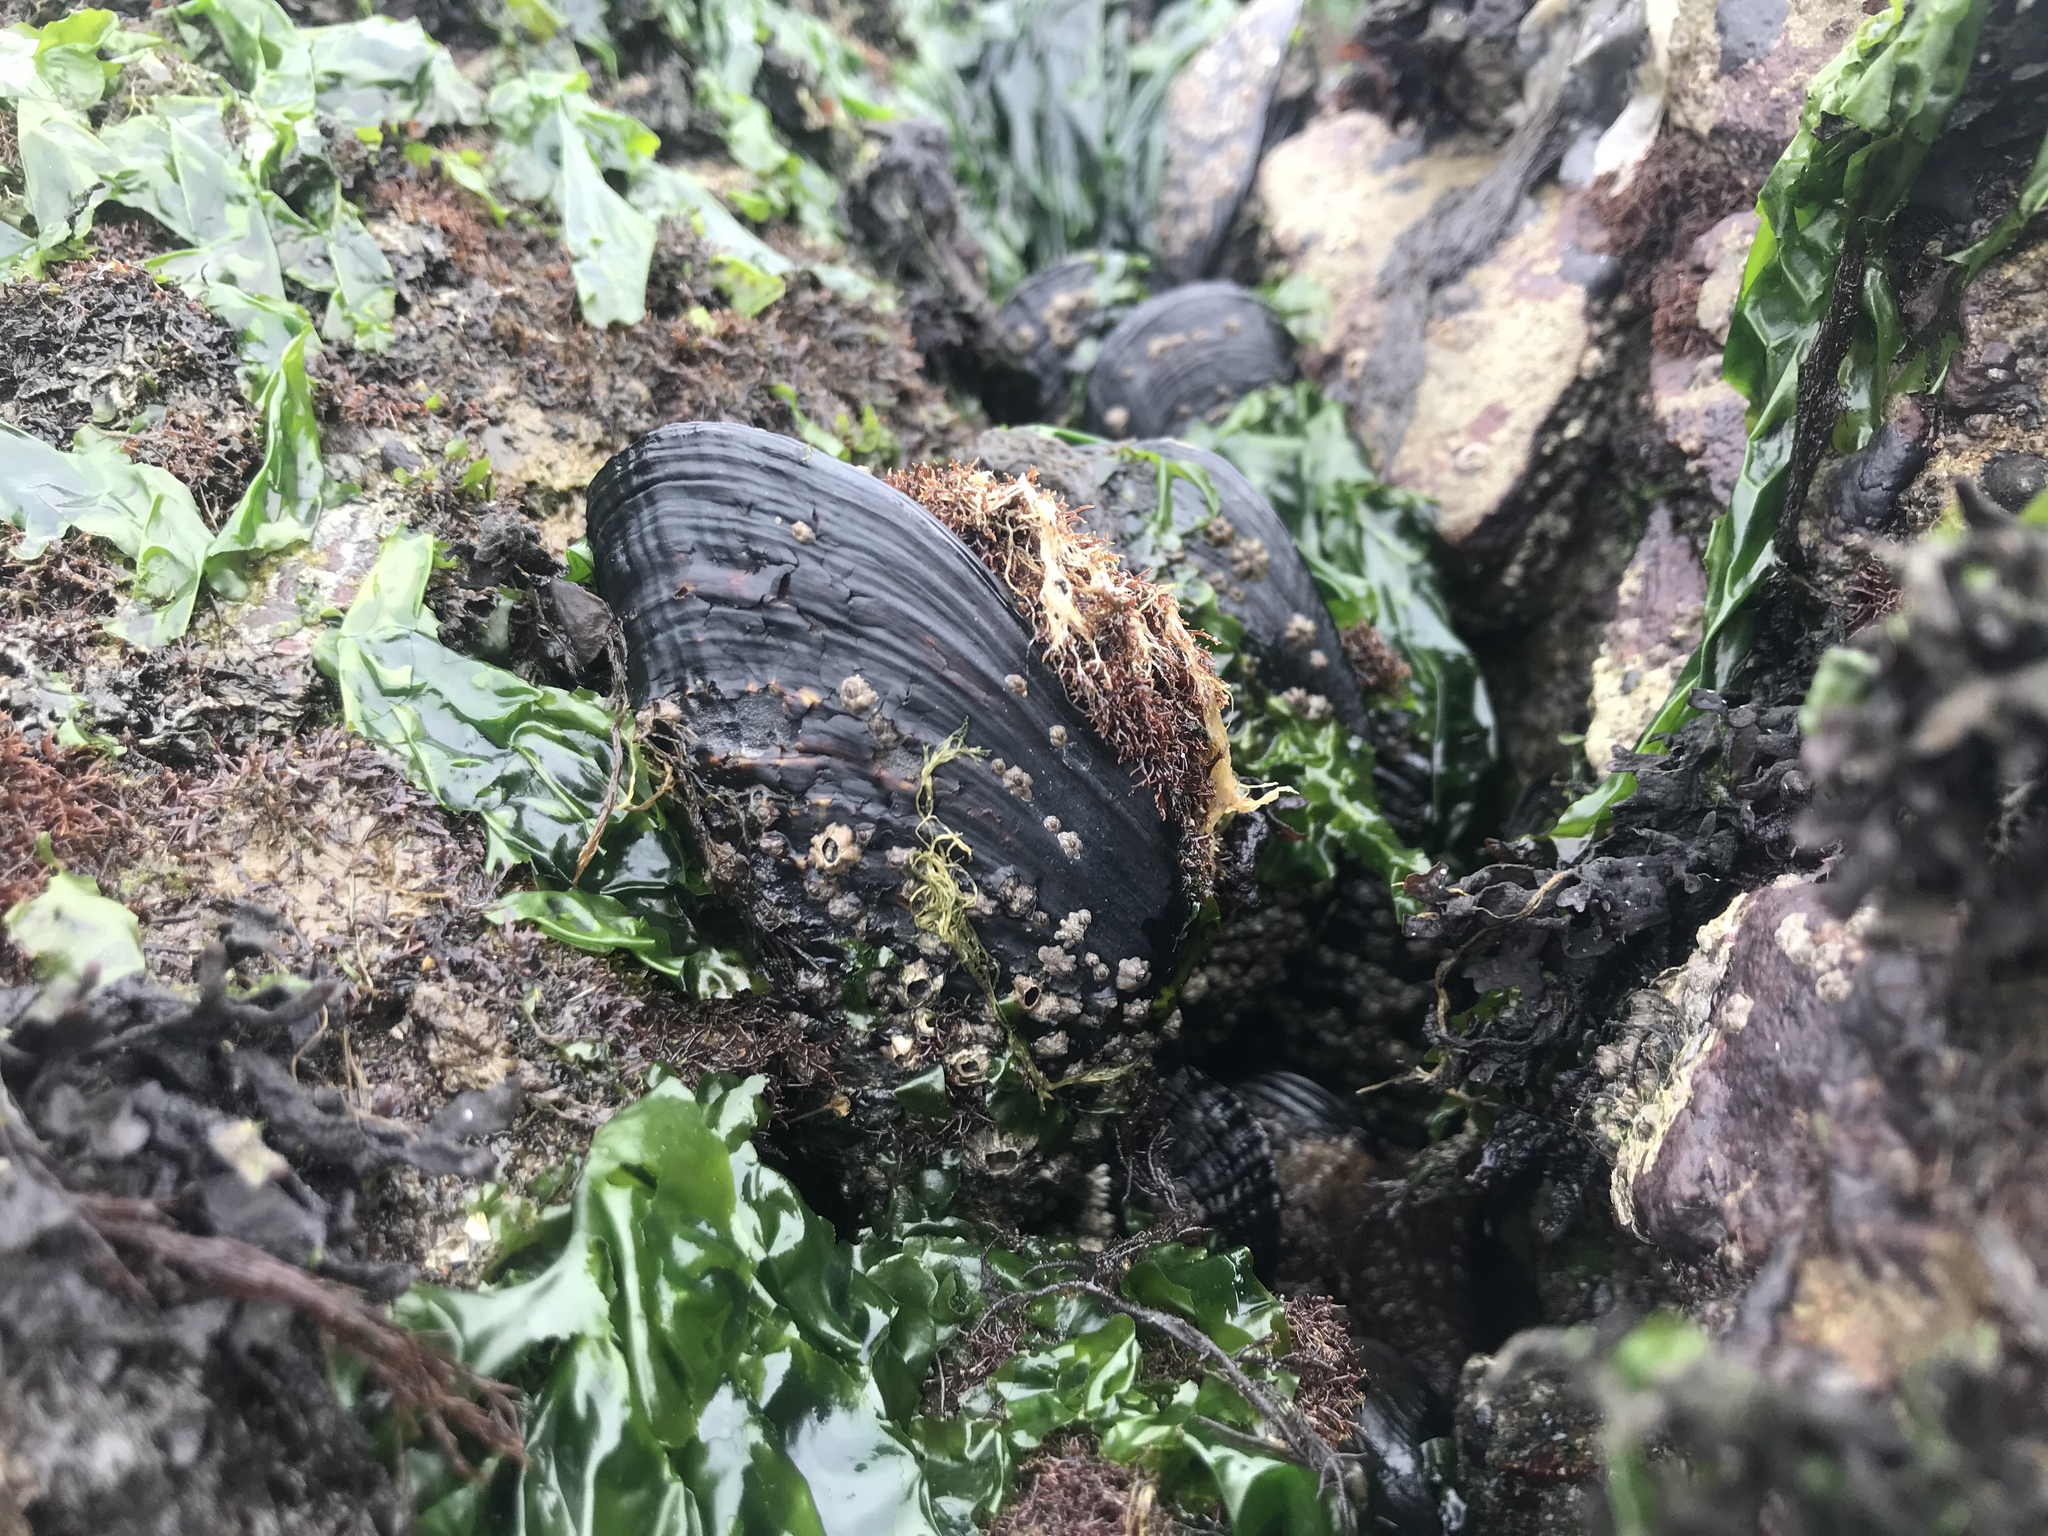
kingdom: Animalia
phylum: Mollusca
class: Bivalvia
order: Mytilida
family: Mytilidae
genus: Mytilus
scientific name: Mytilus californianus
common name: California mussel
